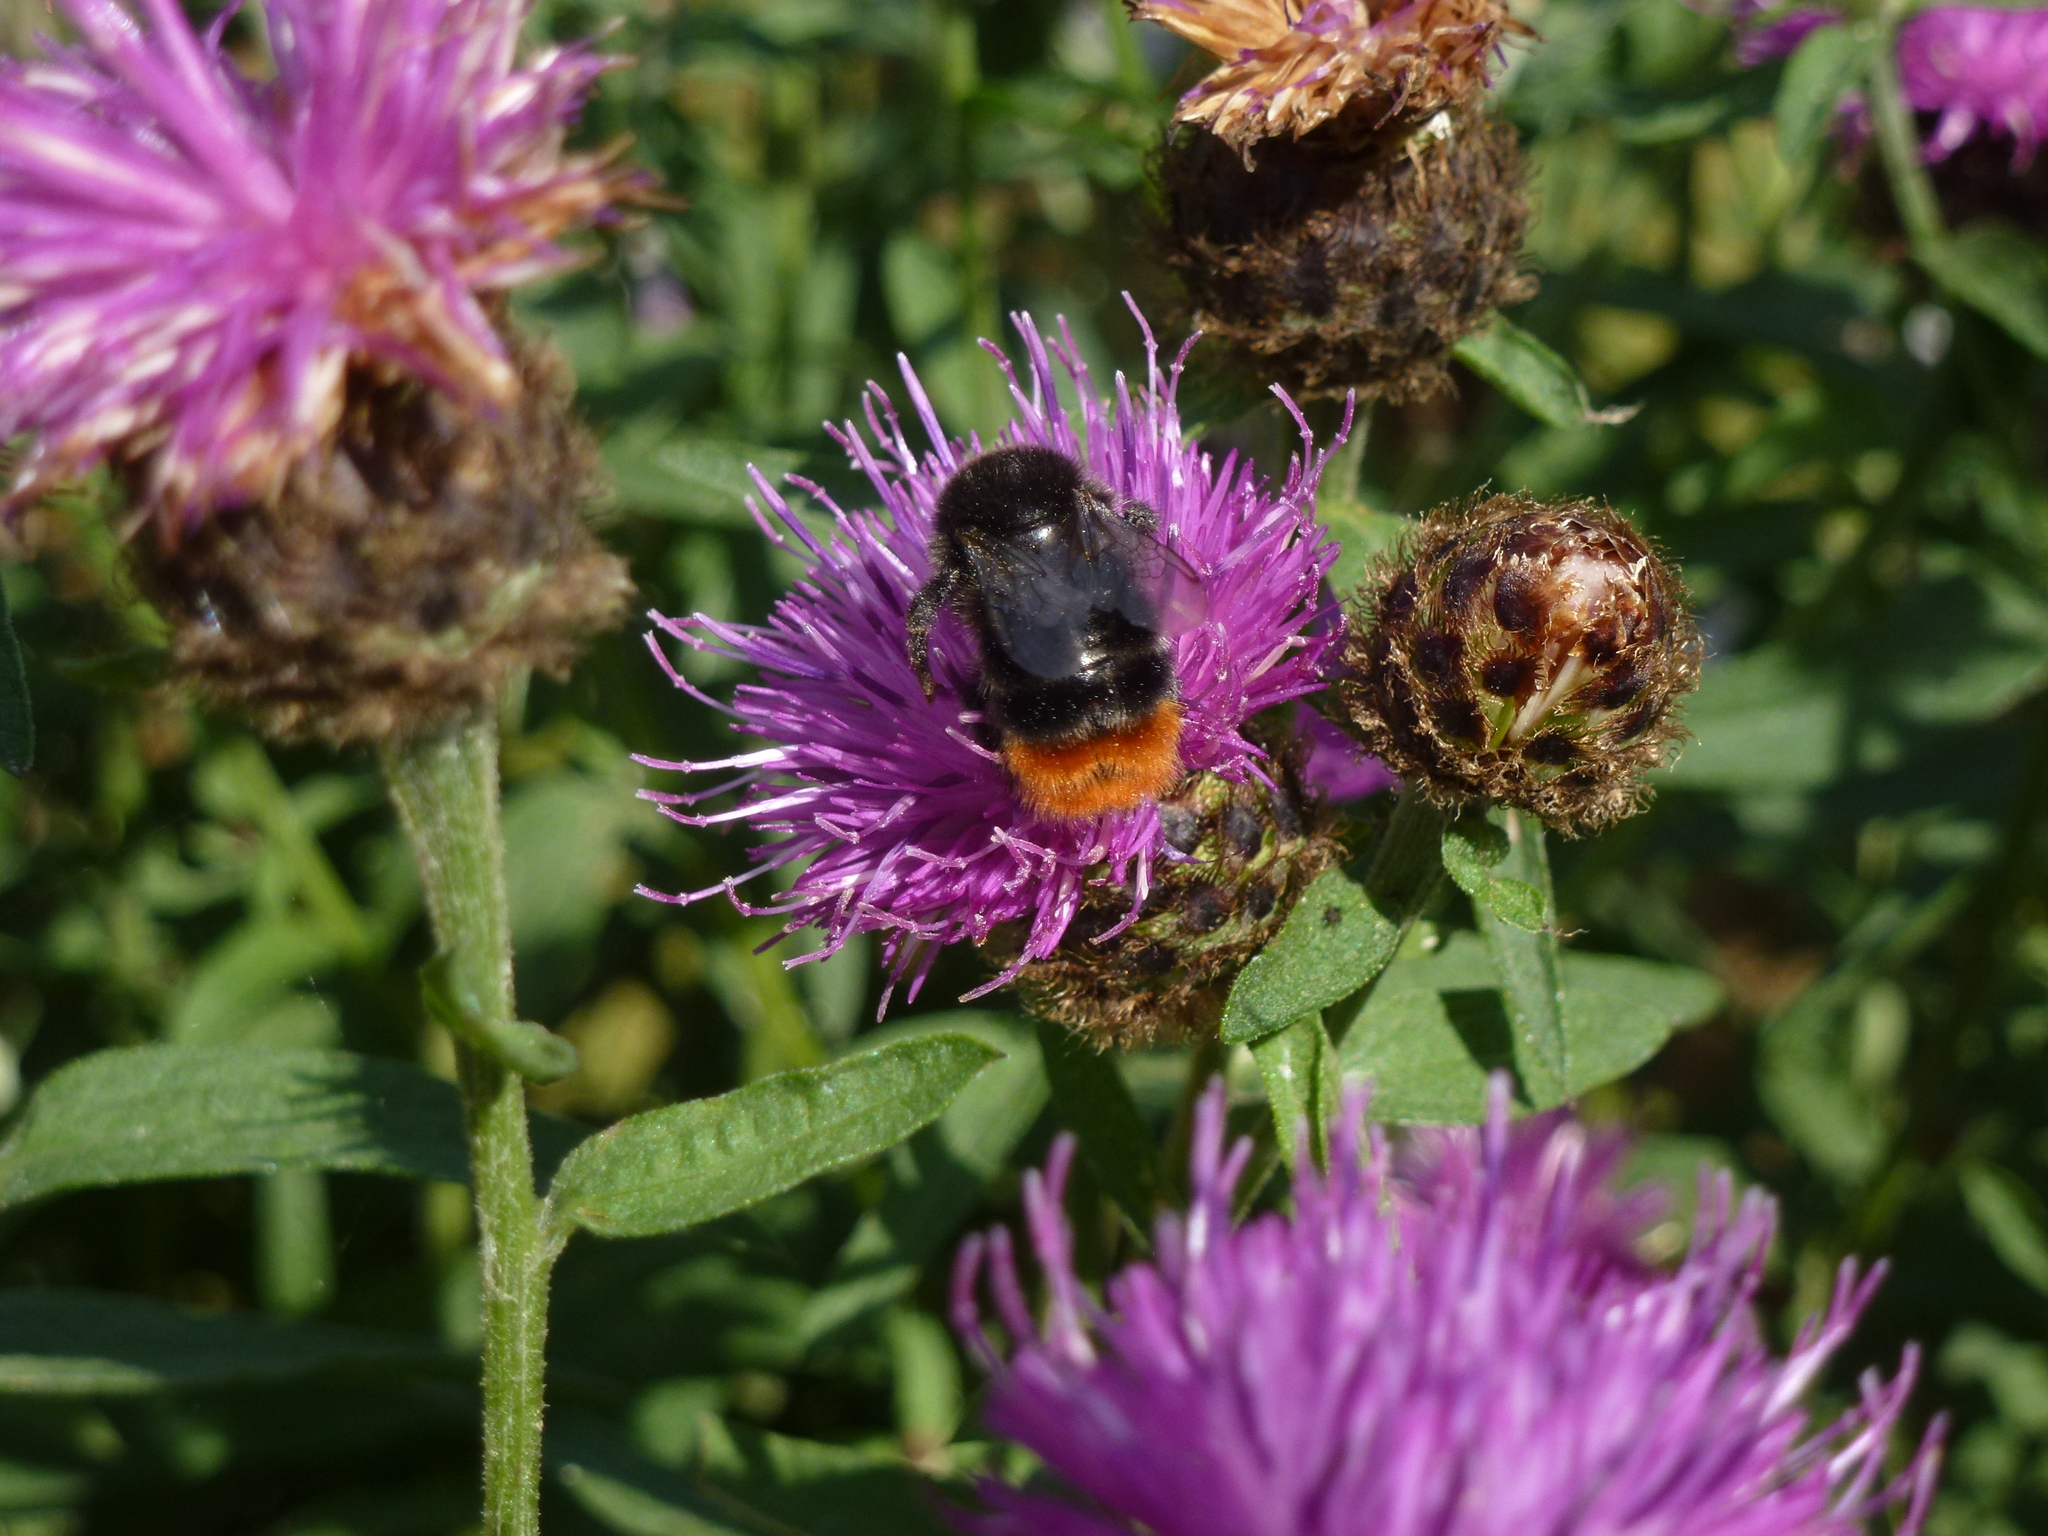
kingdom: Animalia
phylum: Arthropoda
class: Insecta
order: Hymenoptera
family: Apidae
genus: Bombus
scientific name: Bombus lapidarius
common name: Large red-tailed humble-bee
